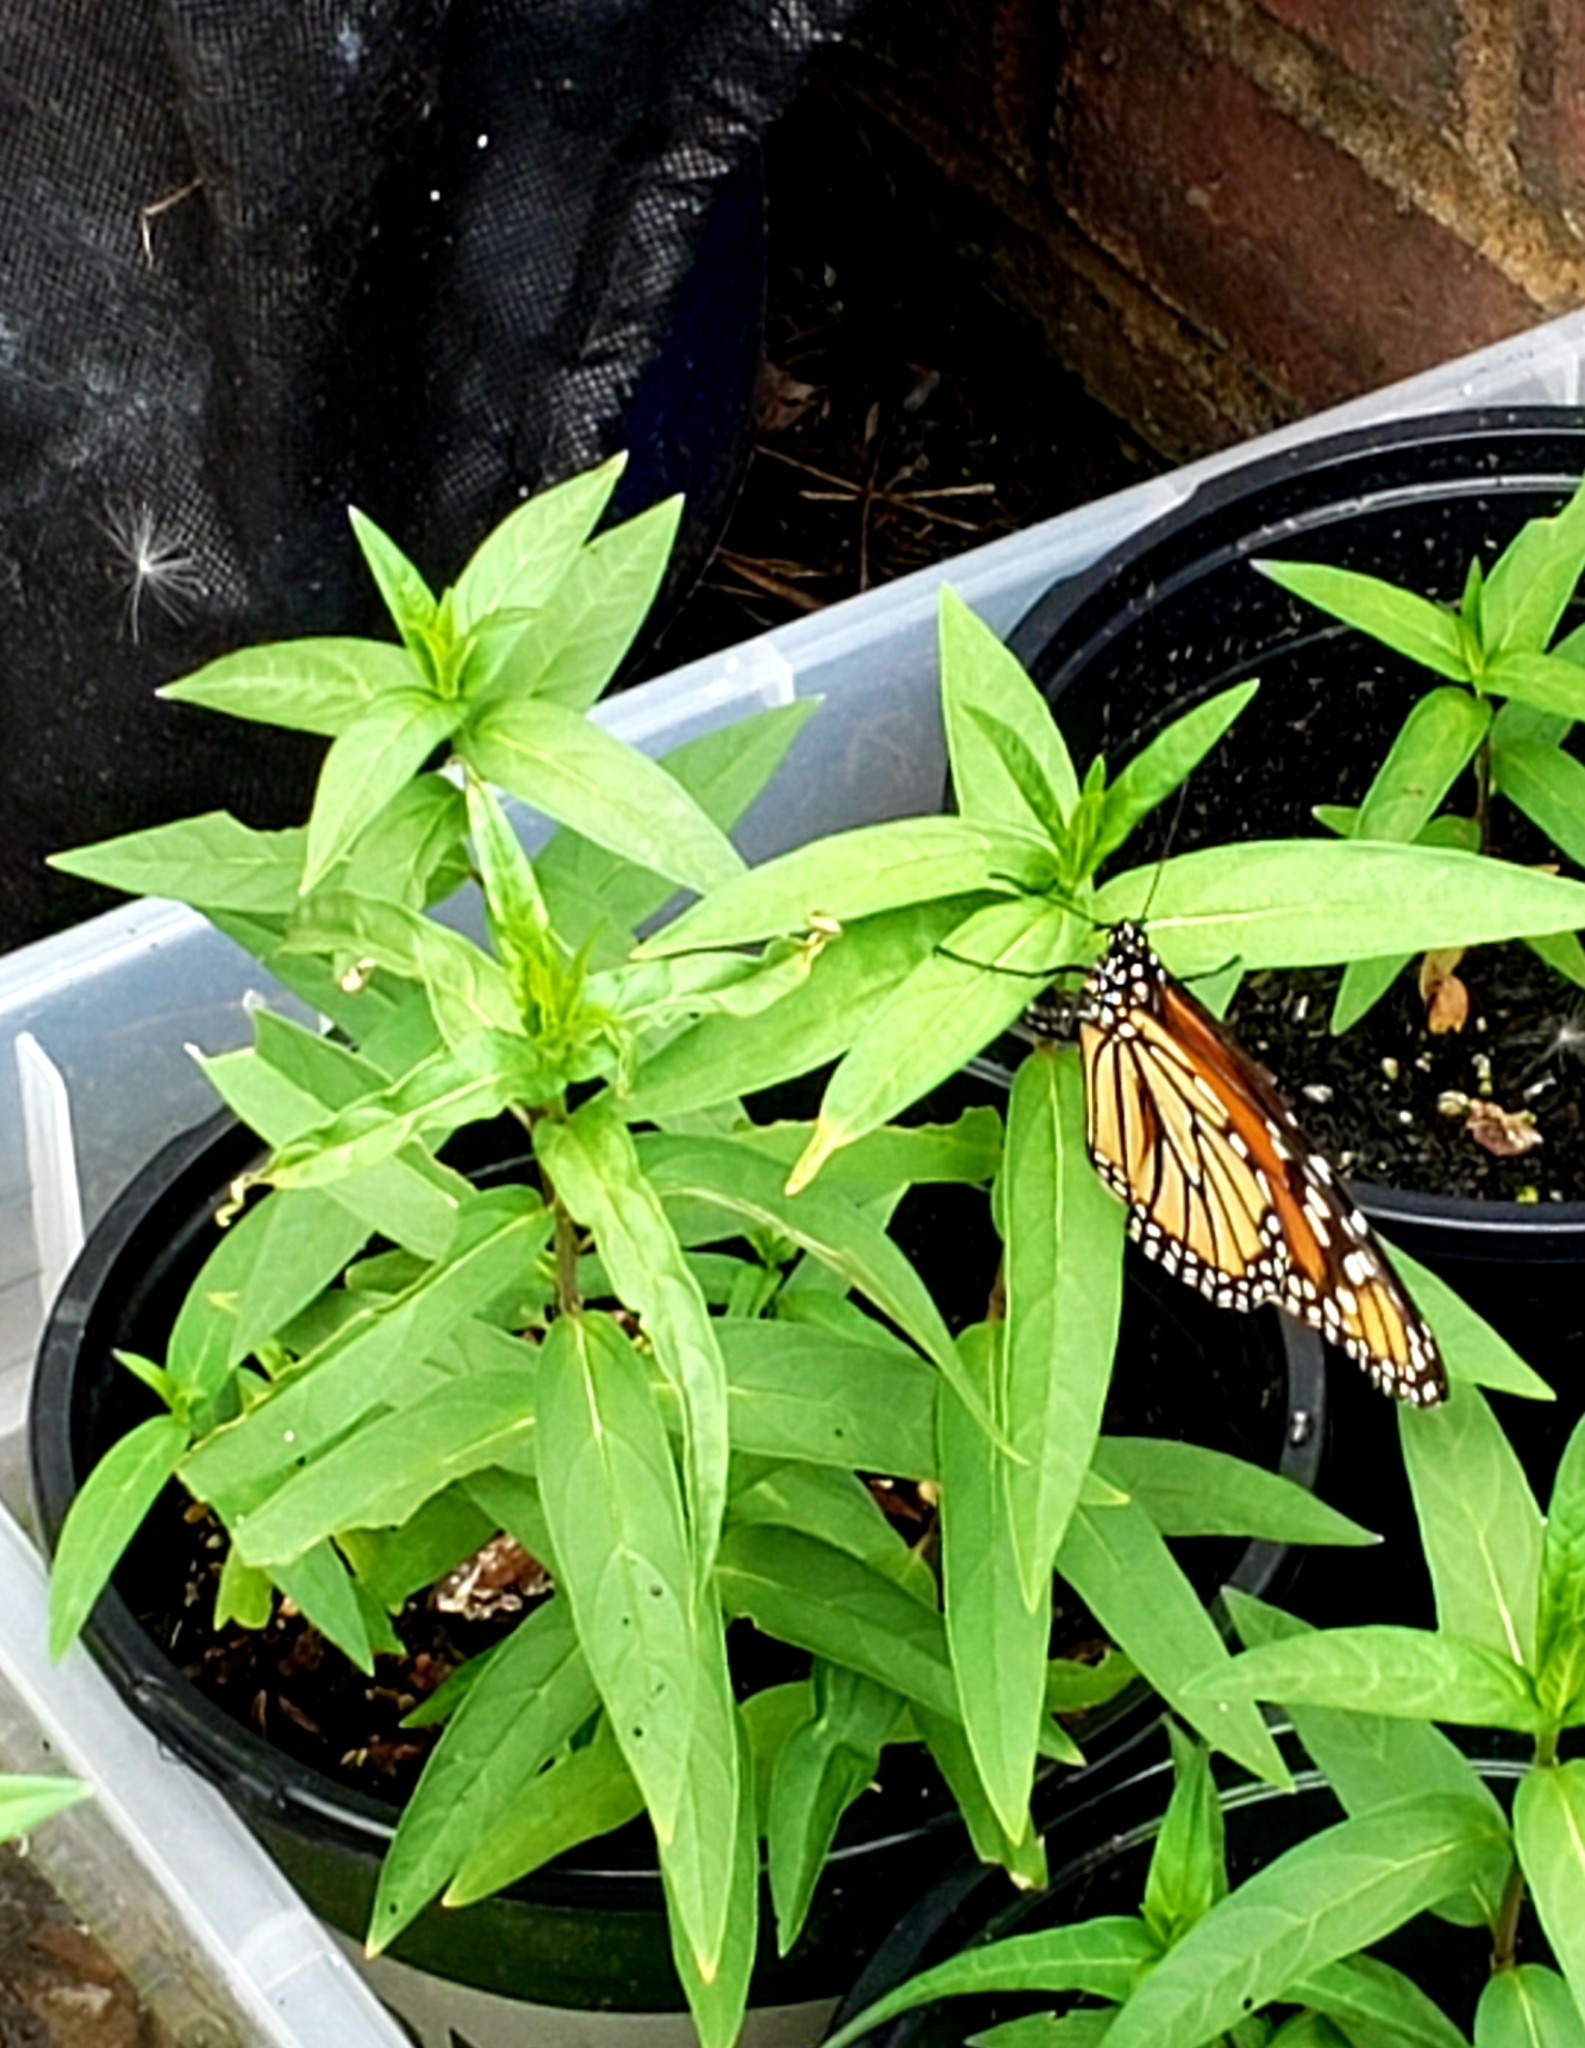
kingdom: Animalia
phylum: Arthropoda
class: Insecta
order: Lepidoptera
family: Nymphalidae
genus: Danaus
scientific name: Danaus plexippus
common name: Monarch
